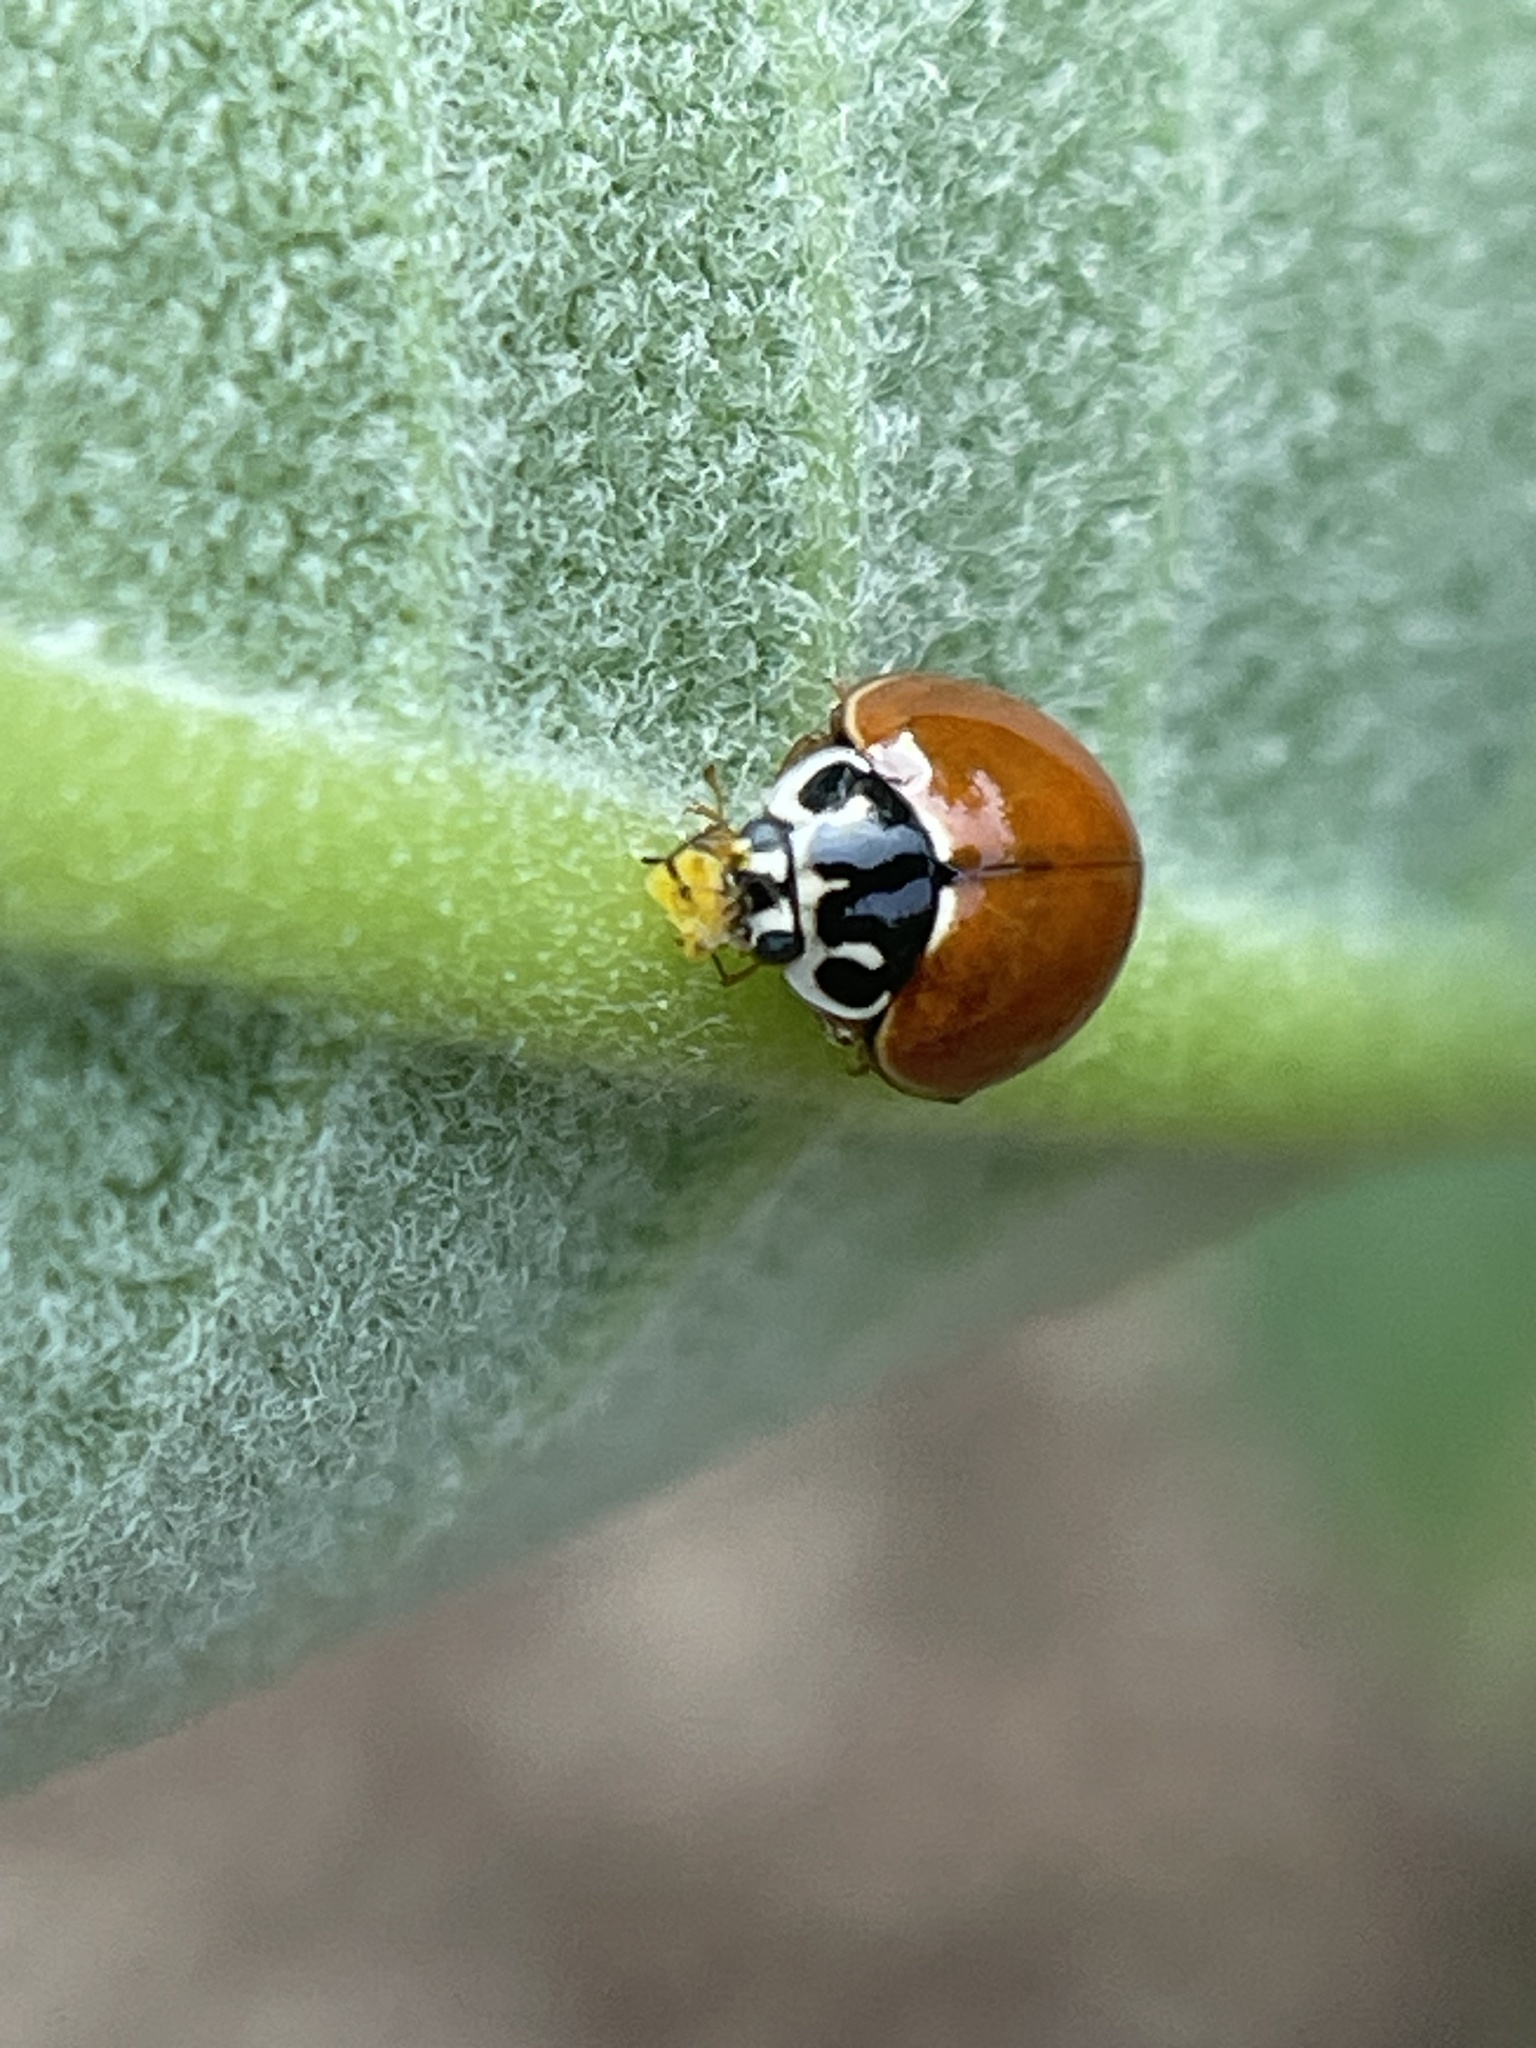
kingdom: Animalia
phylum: Arthropoda
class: Insecta
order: Coleoptera
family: Coccinellidae
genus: Cycloneda
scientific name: Cycloneda munda
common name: Polished lady beetle
